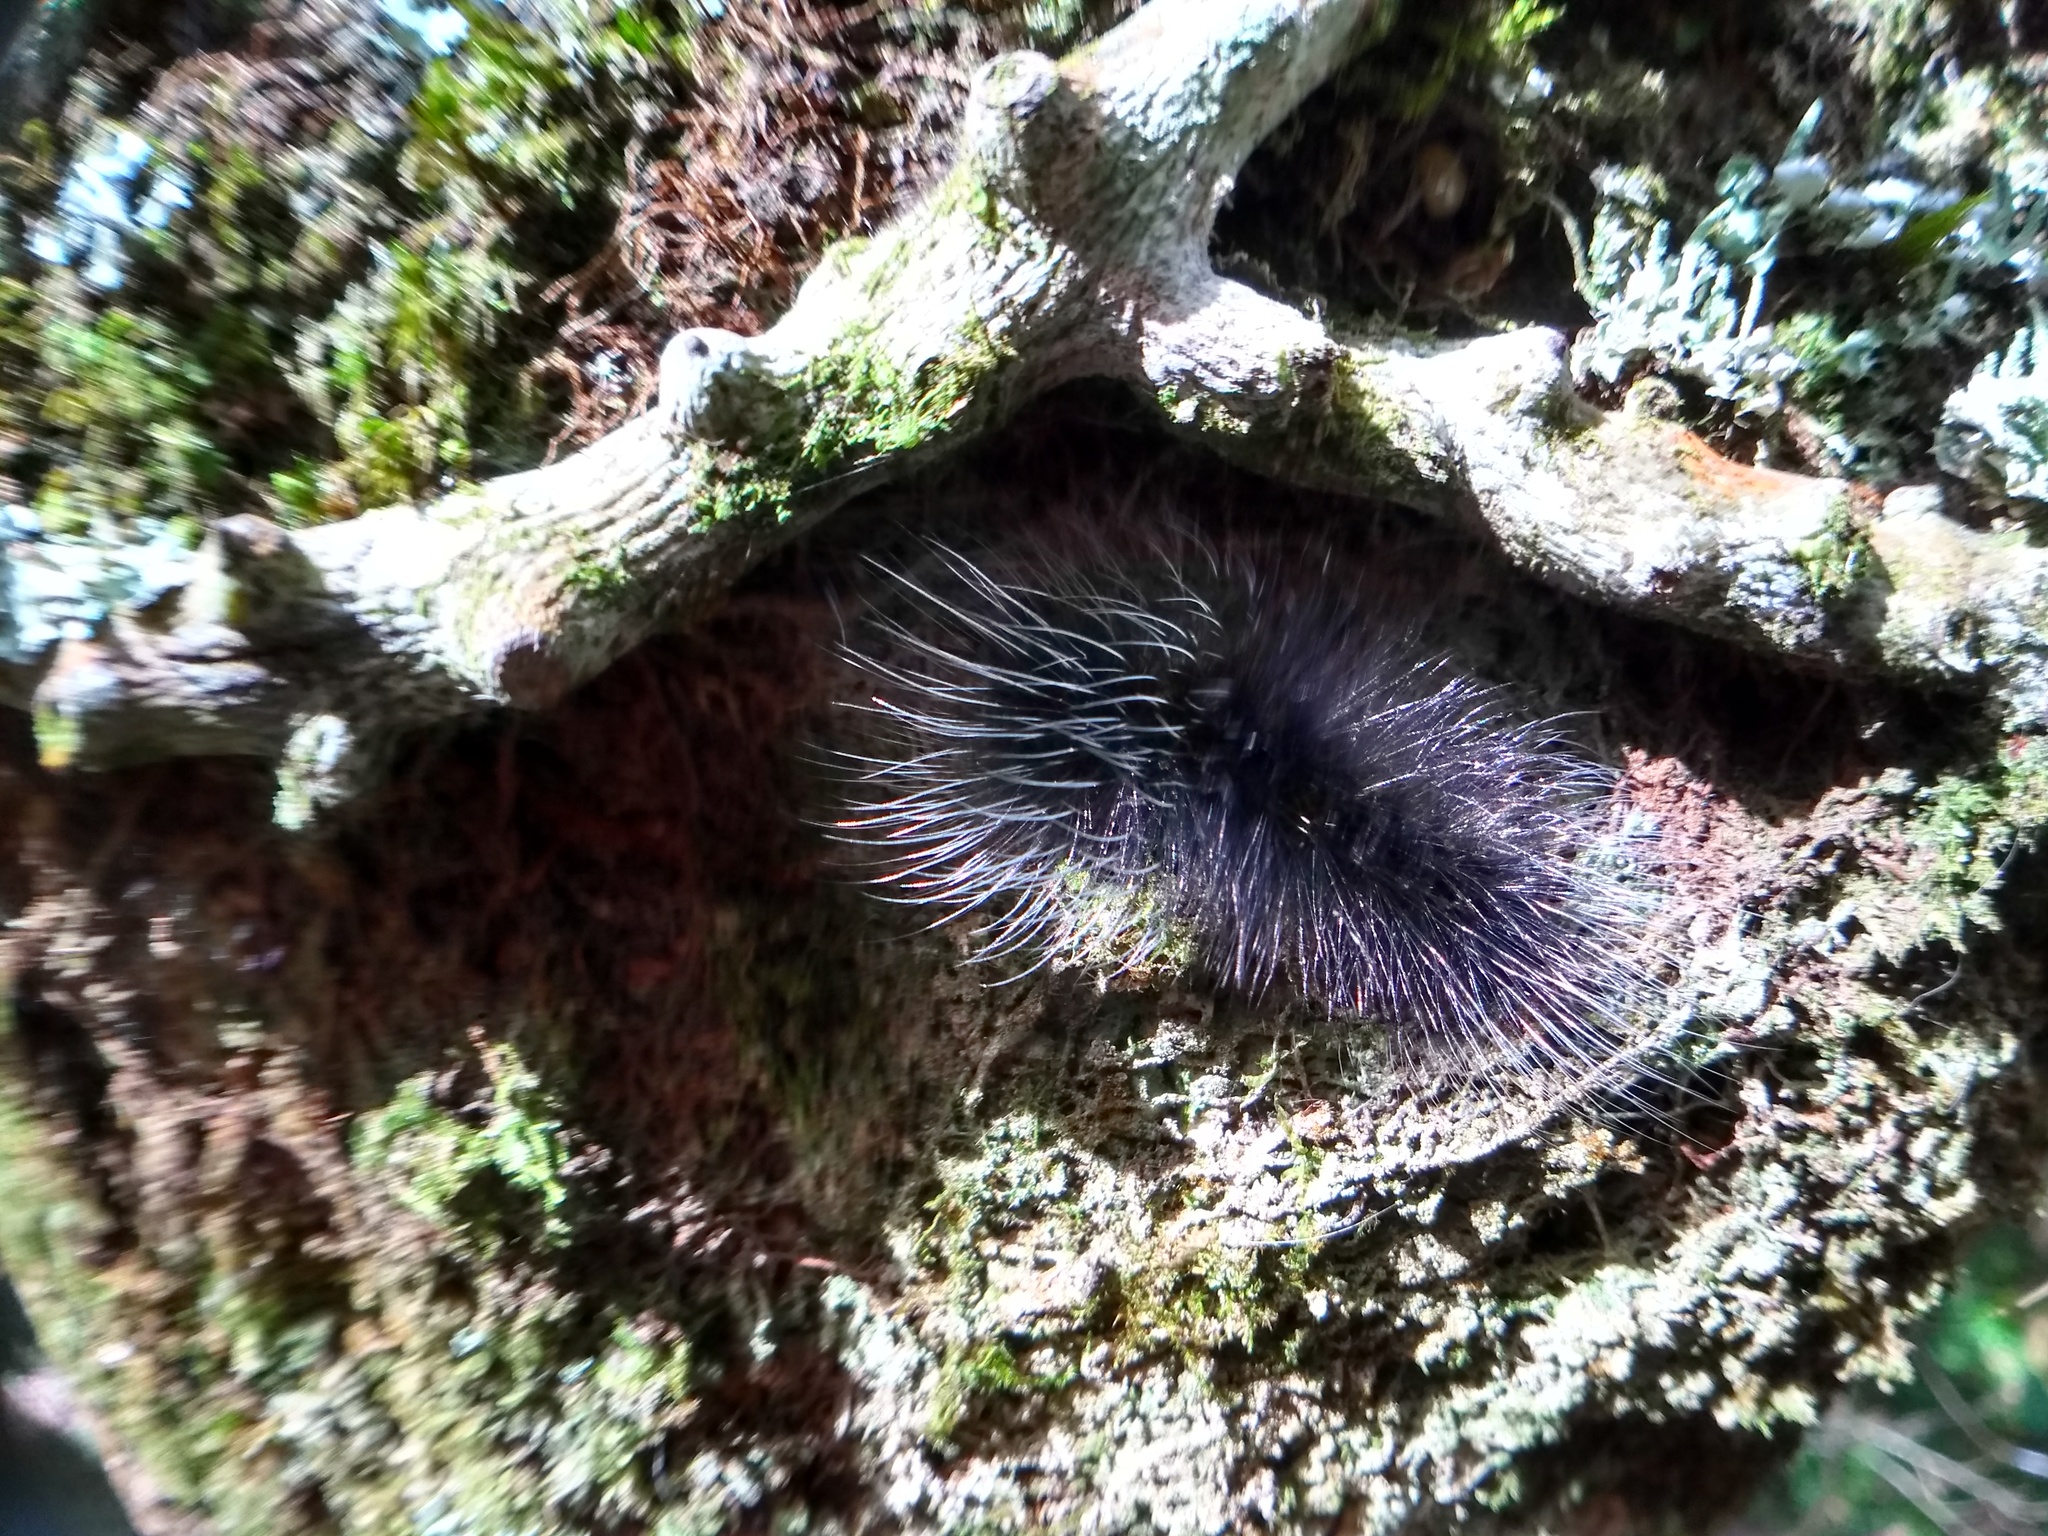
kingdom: Animalia
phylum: Arthropoda
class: Insecta
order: Lepidoptera
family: Erebidae
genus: Apistosia
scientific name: Apistosia judas
